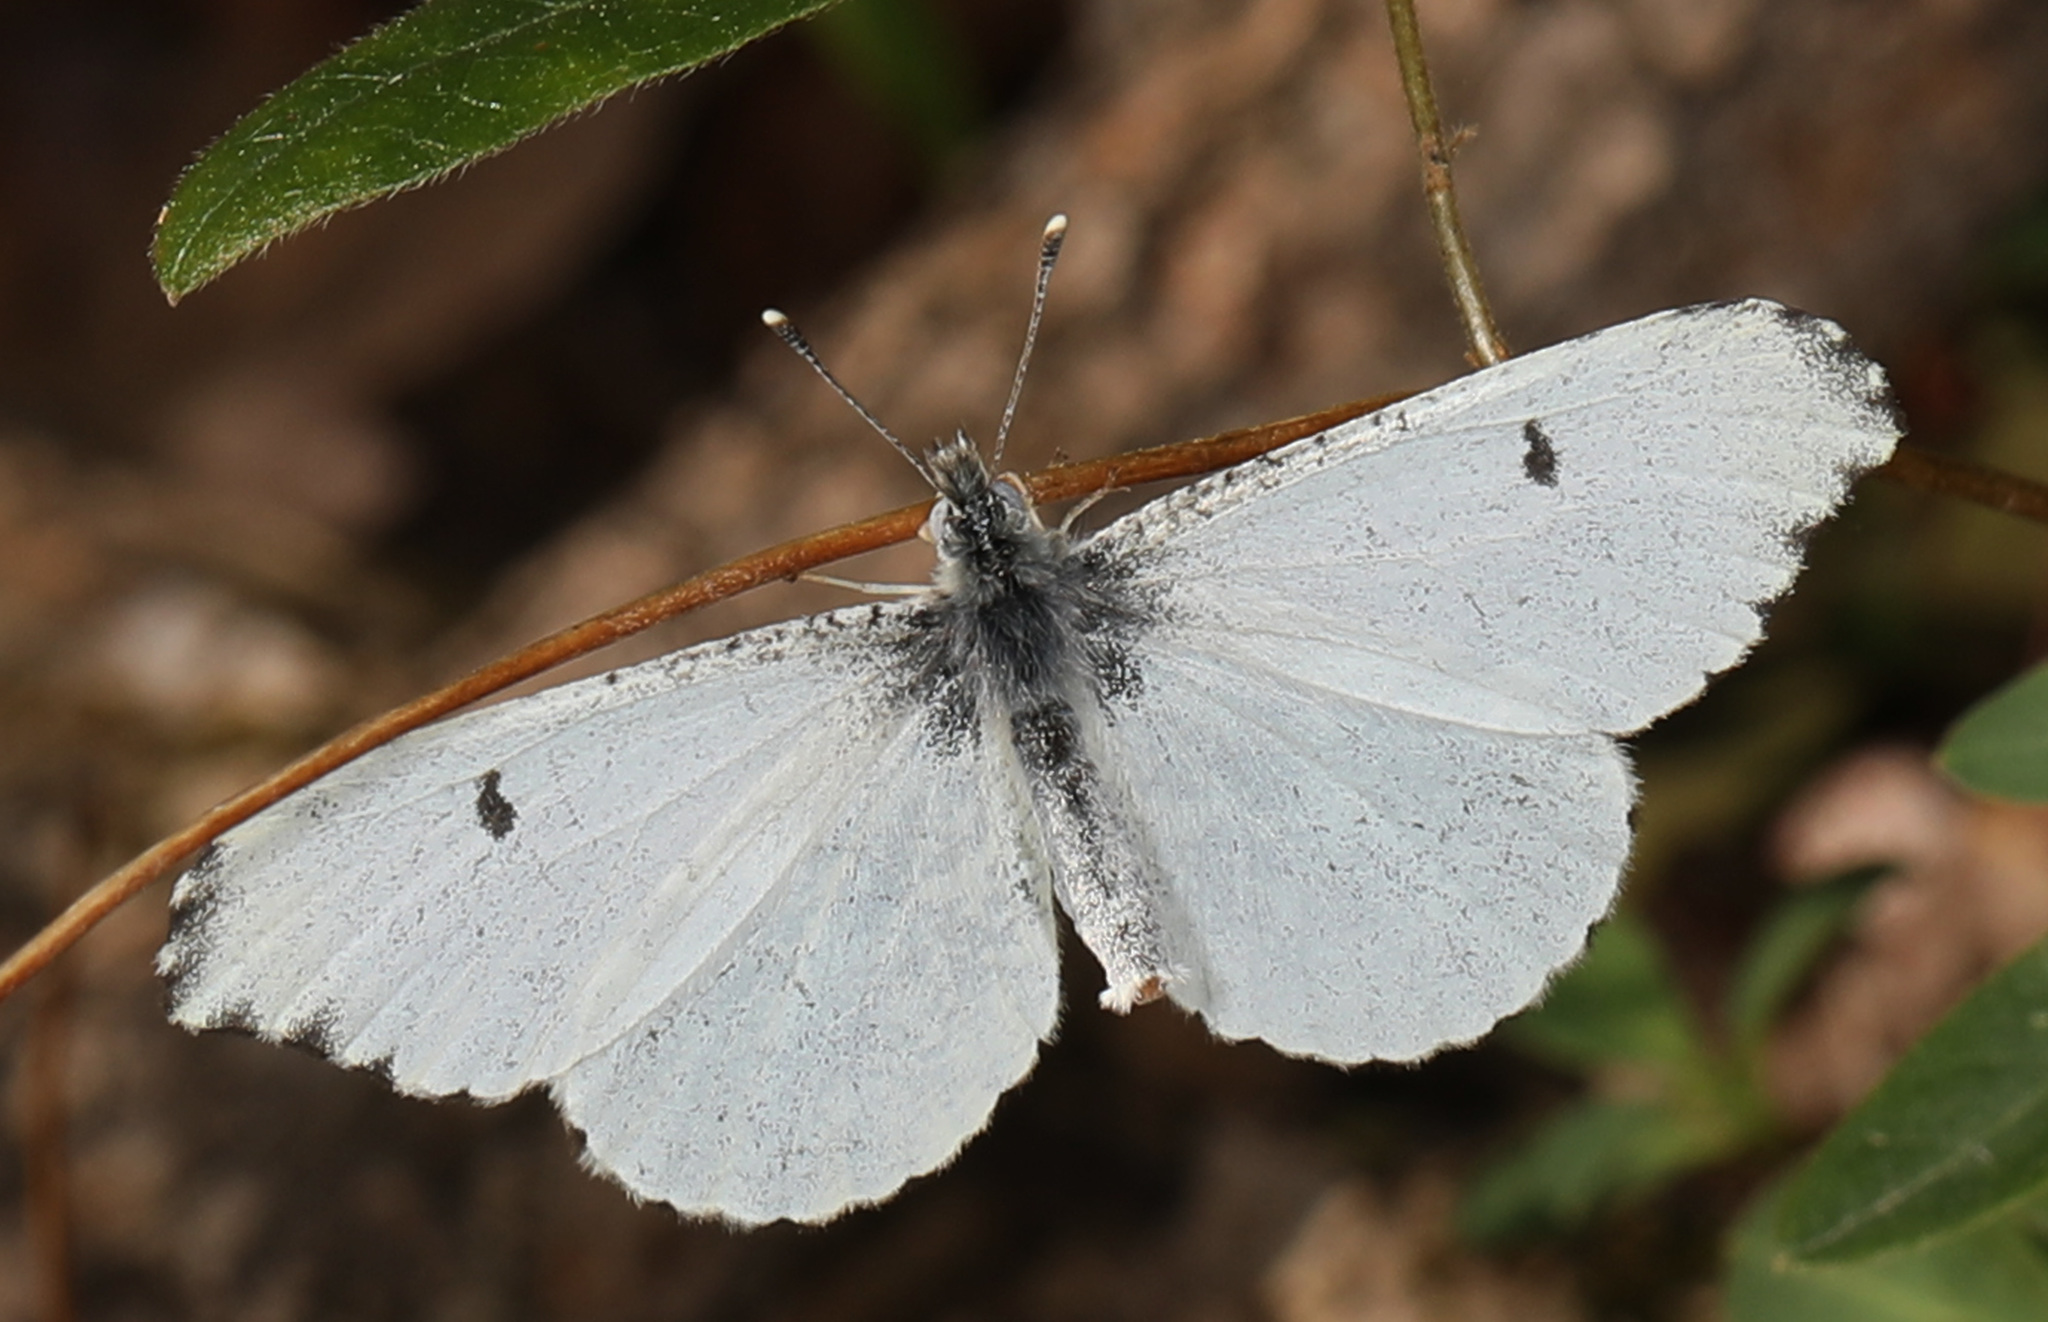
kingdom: Animalia
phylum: Arthropoda
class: Insecta
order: Lepidoptera
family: Pieridae
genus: Anthocharis
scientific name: Anthocharis midea
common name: Falcate orangetip
